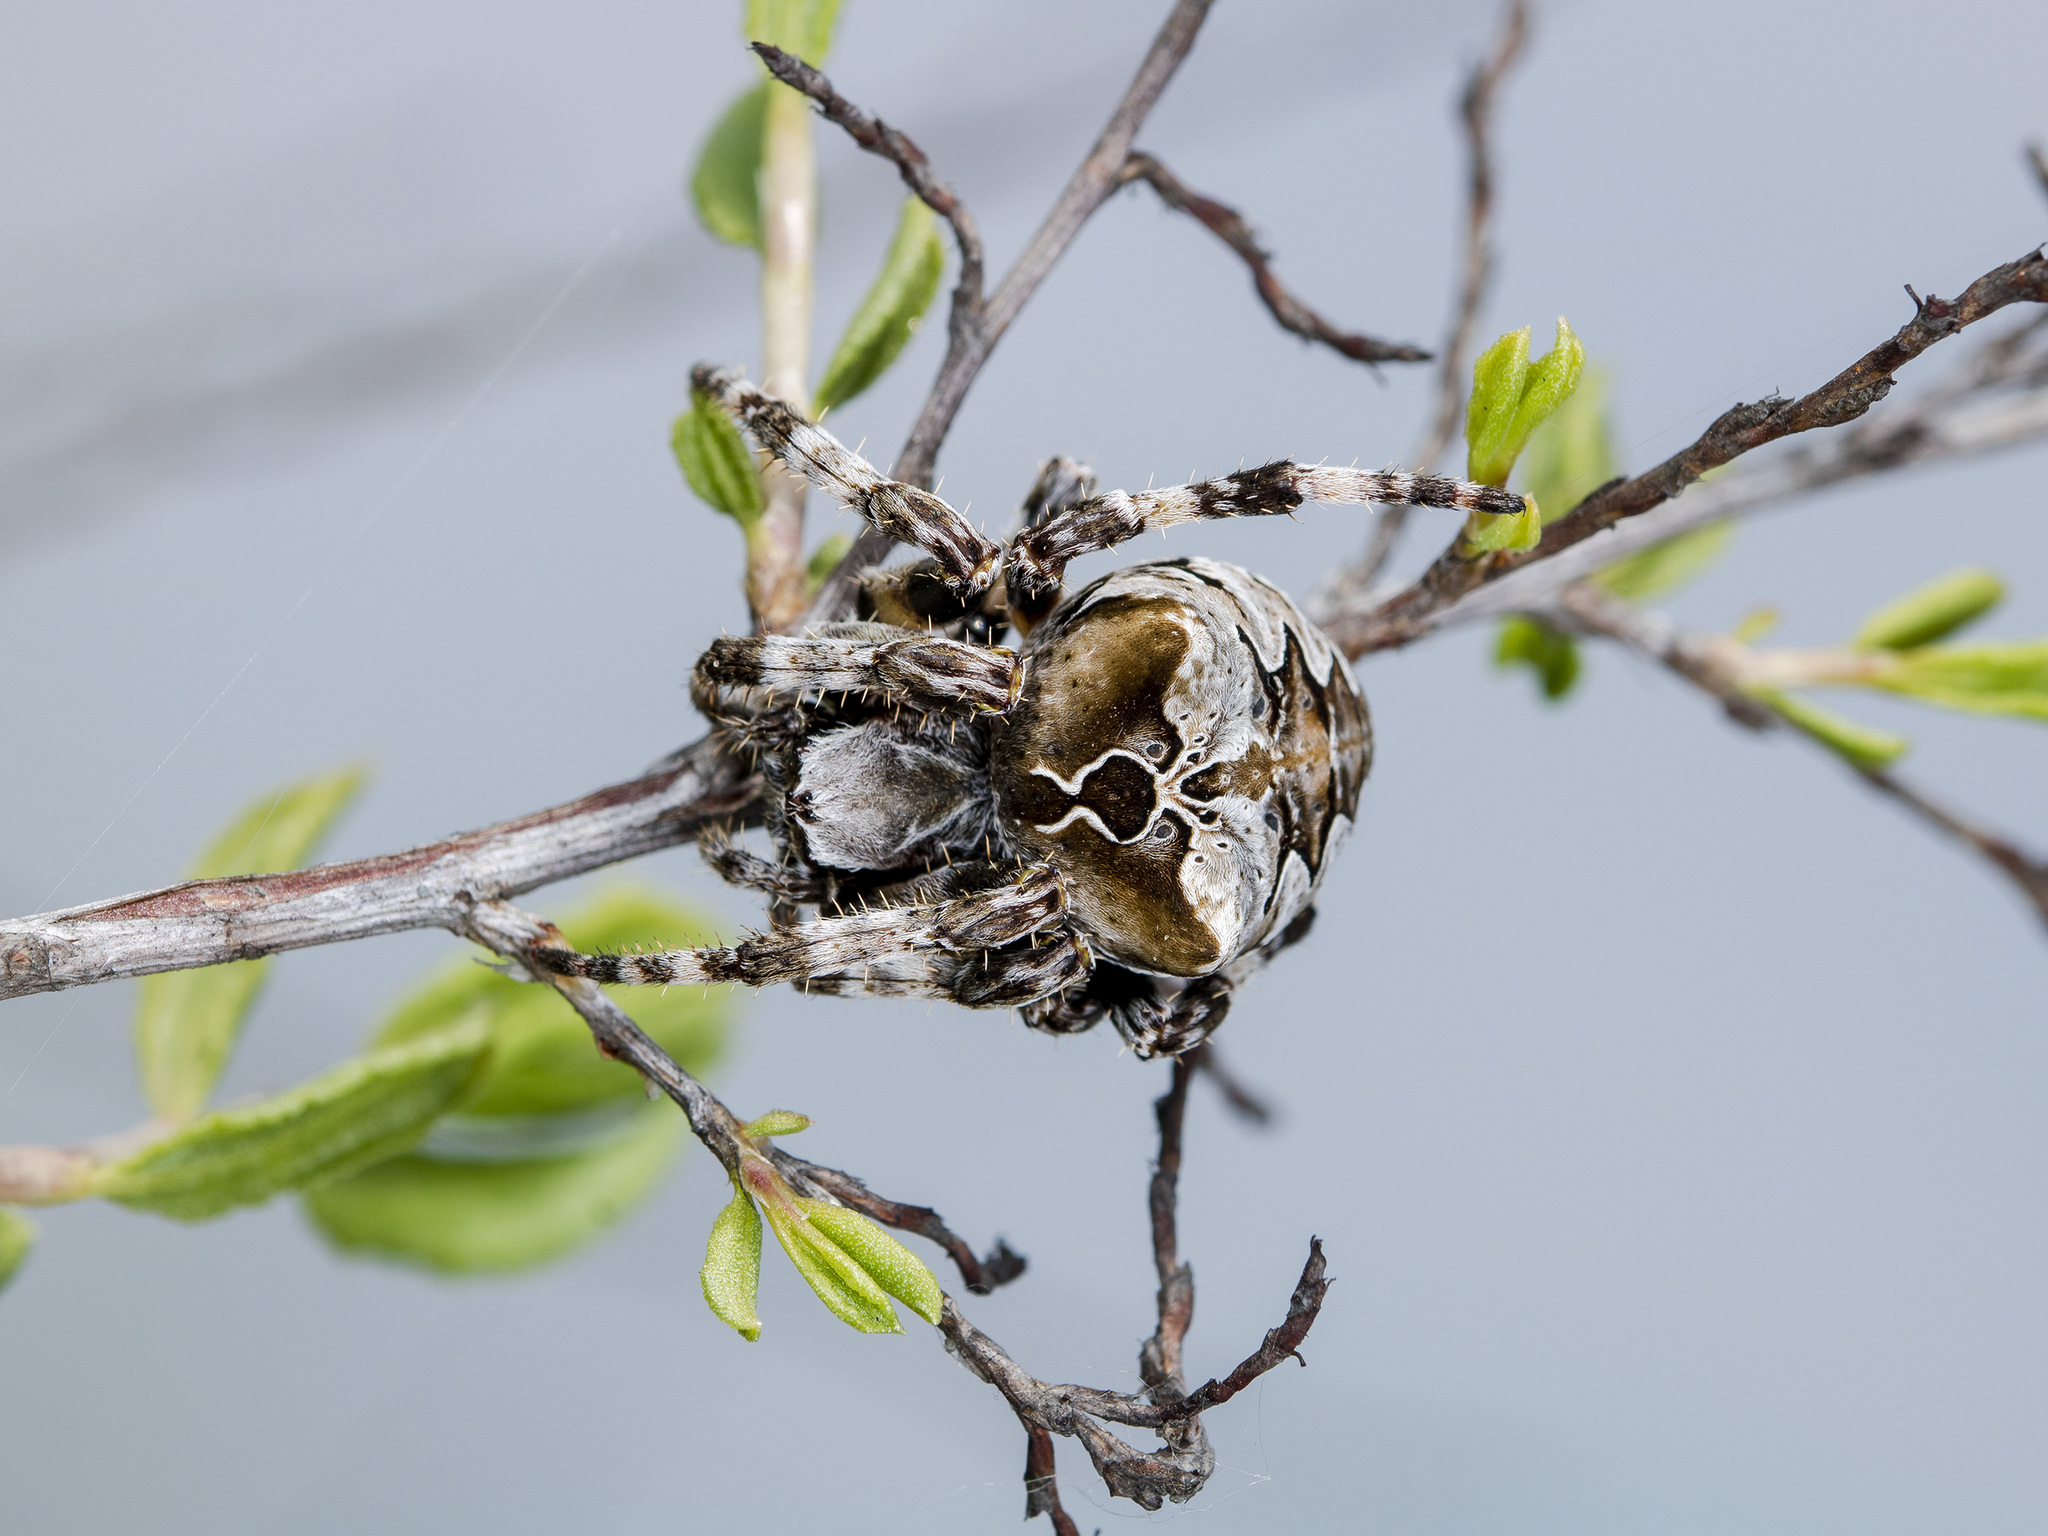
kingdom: Animalia
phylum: Arthropoda
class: Arachnida
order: Araneae
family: Araneidae
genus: Araneus
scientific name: Araneus grossus
